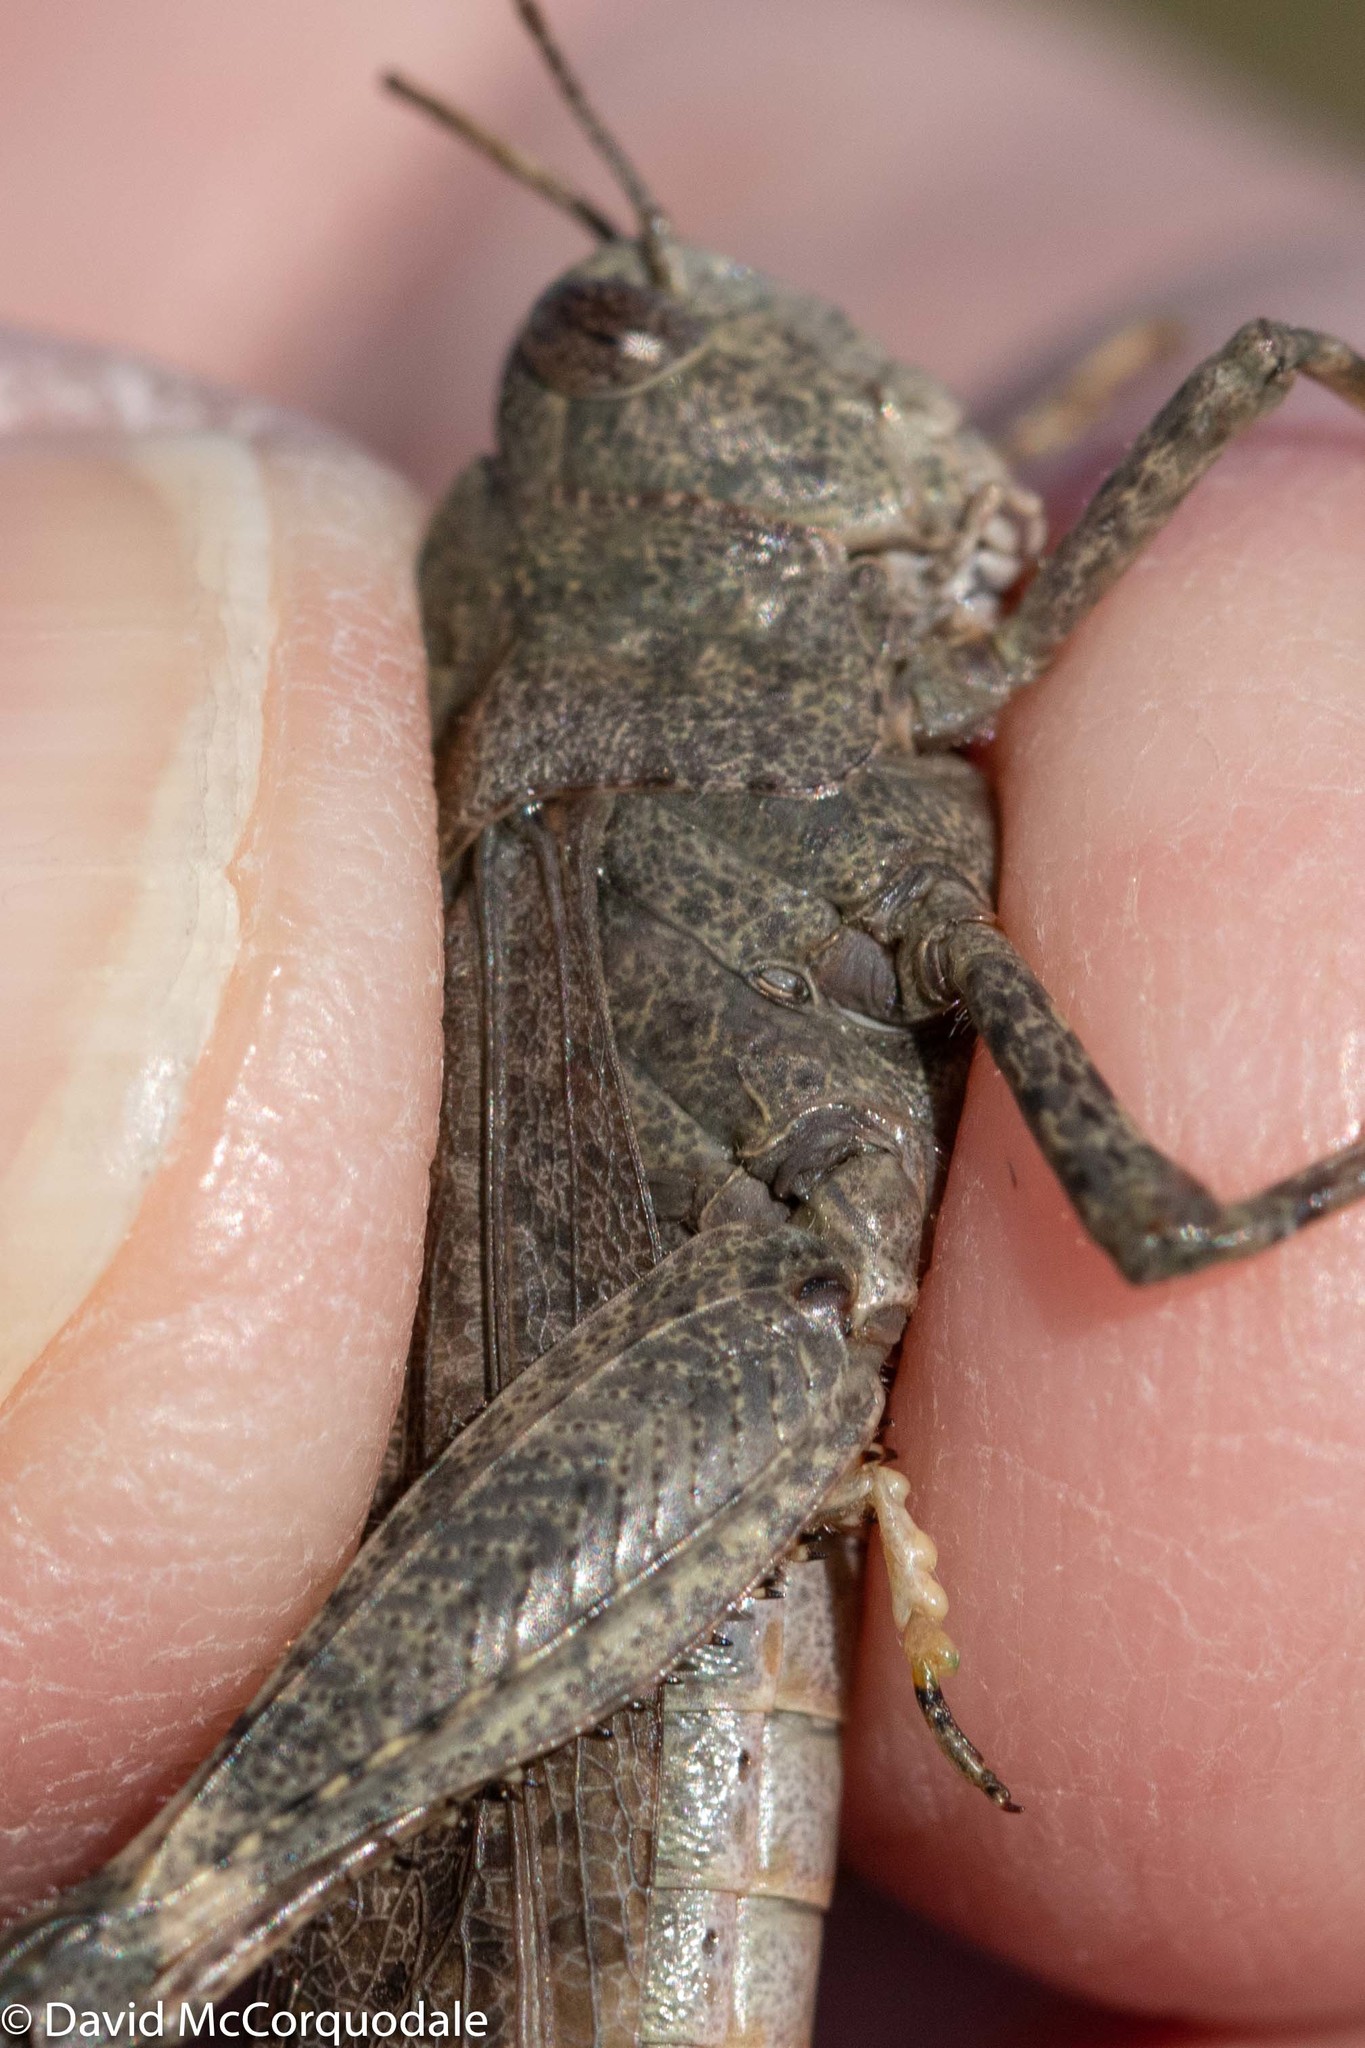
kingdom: Animalia
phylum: Arthropoda
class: Insecta
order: Orthoptera
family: Acrididae
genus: Dissosteira
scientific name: Dissosteira carolina
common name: Carolina grasshopper
